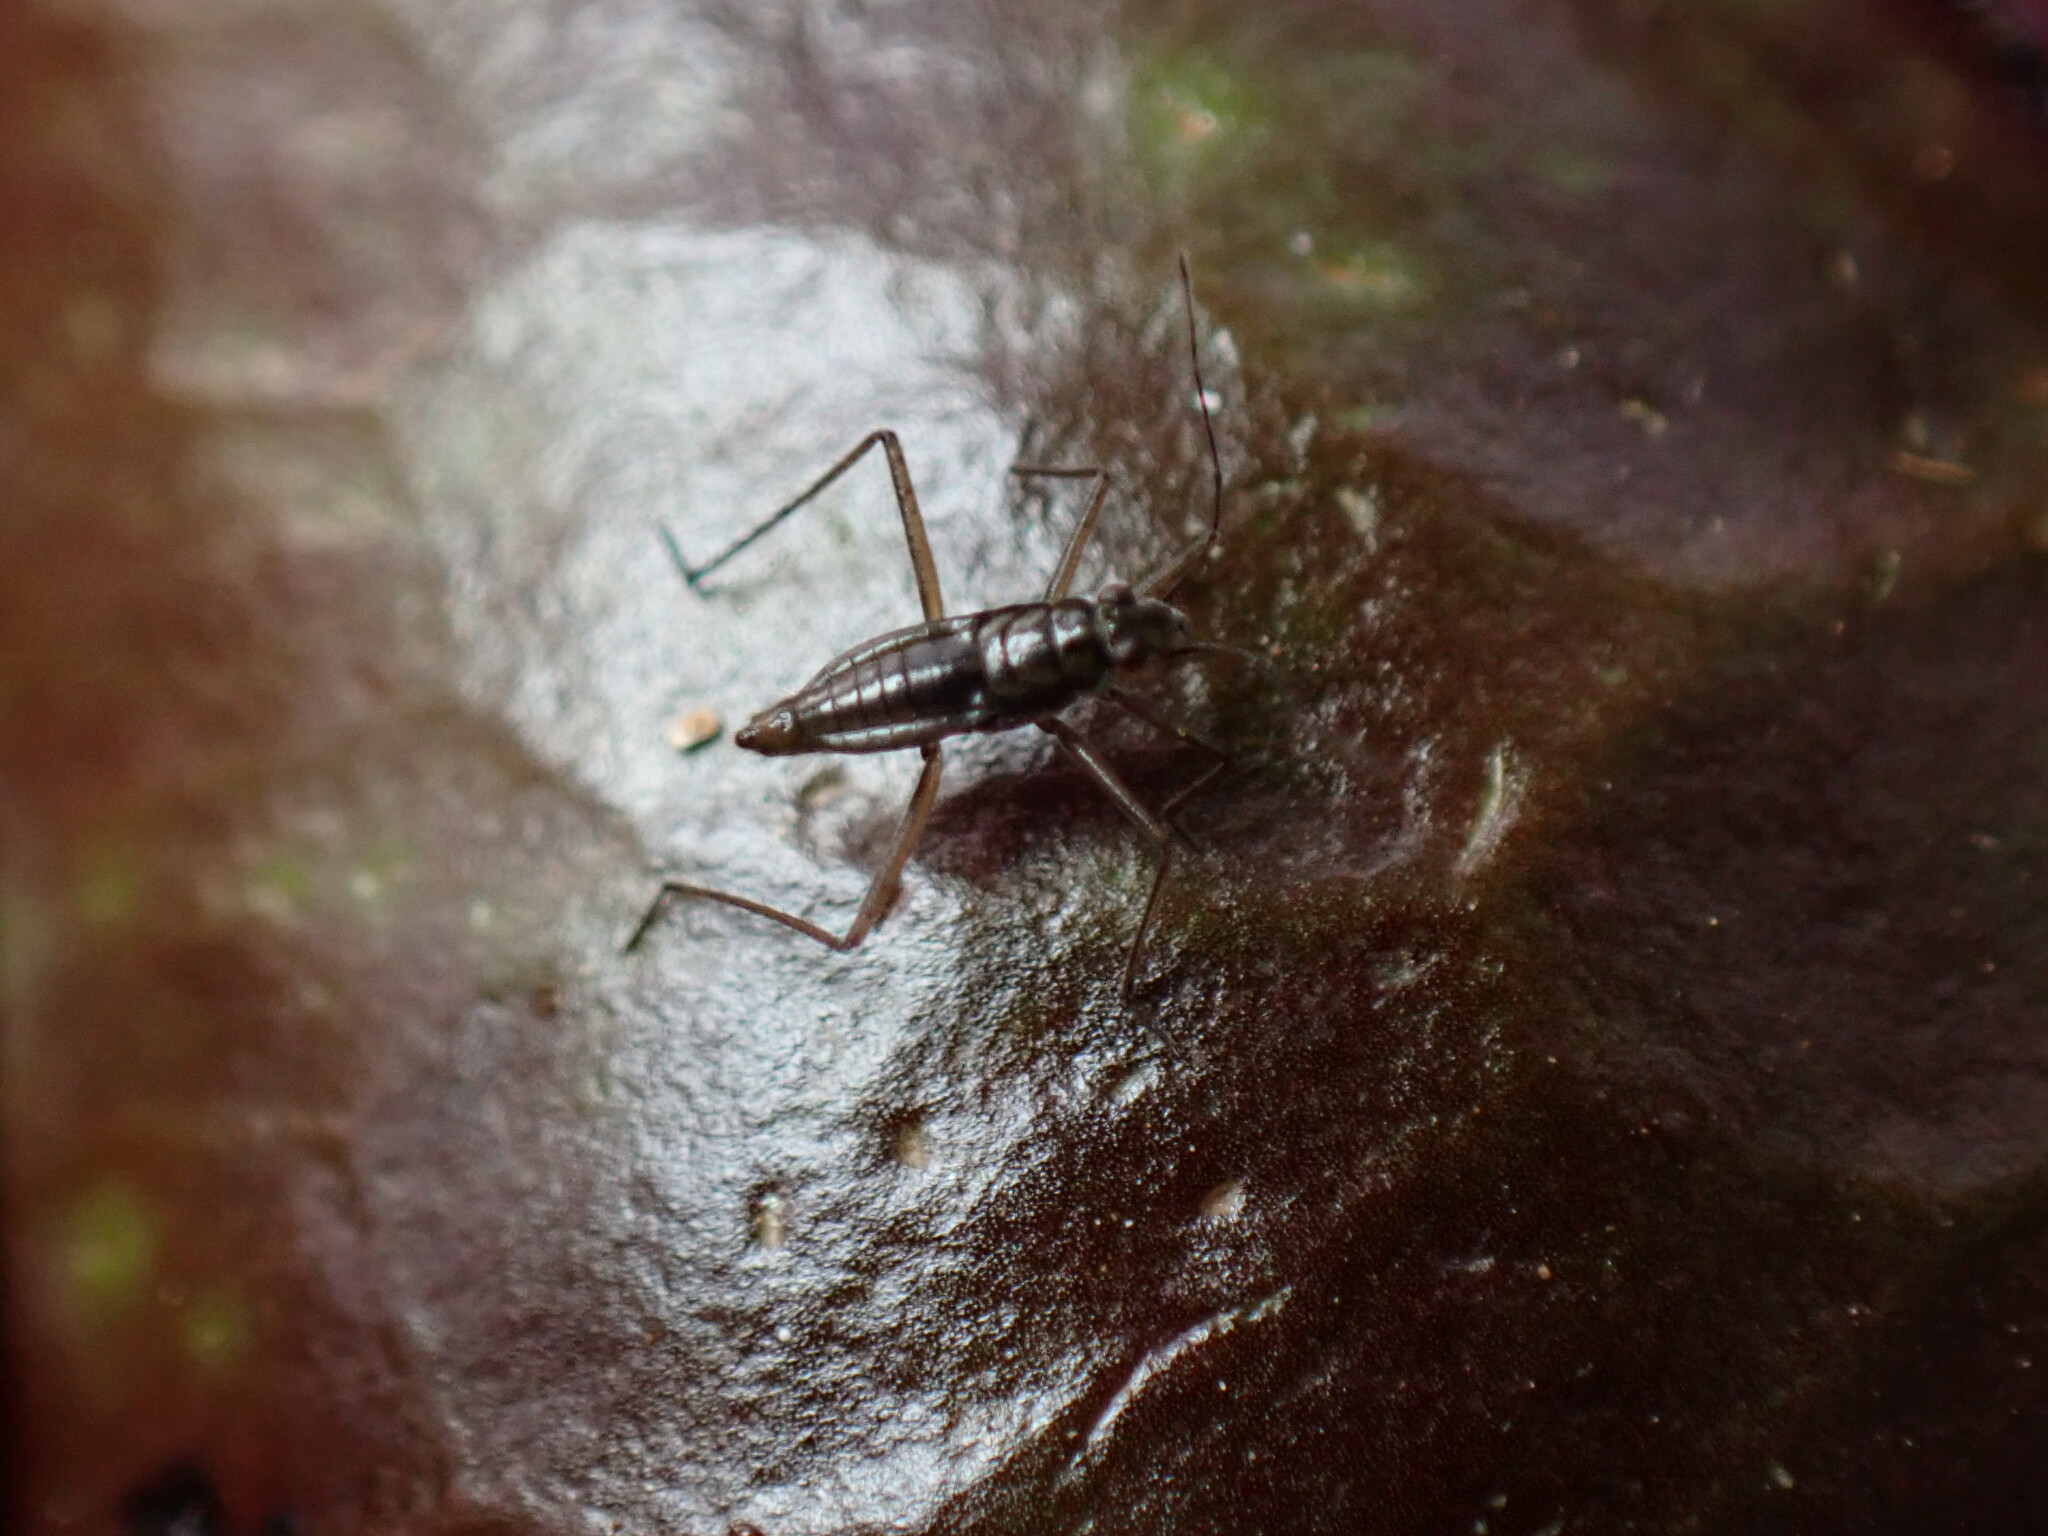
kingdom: Animalia
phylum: Arthropoda
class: Insecta
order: Hemiptera
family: Mesoveliidae
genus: Mesovelia
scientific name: Mesovelia mulsanti
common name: Water treaders
